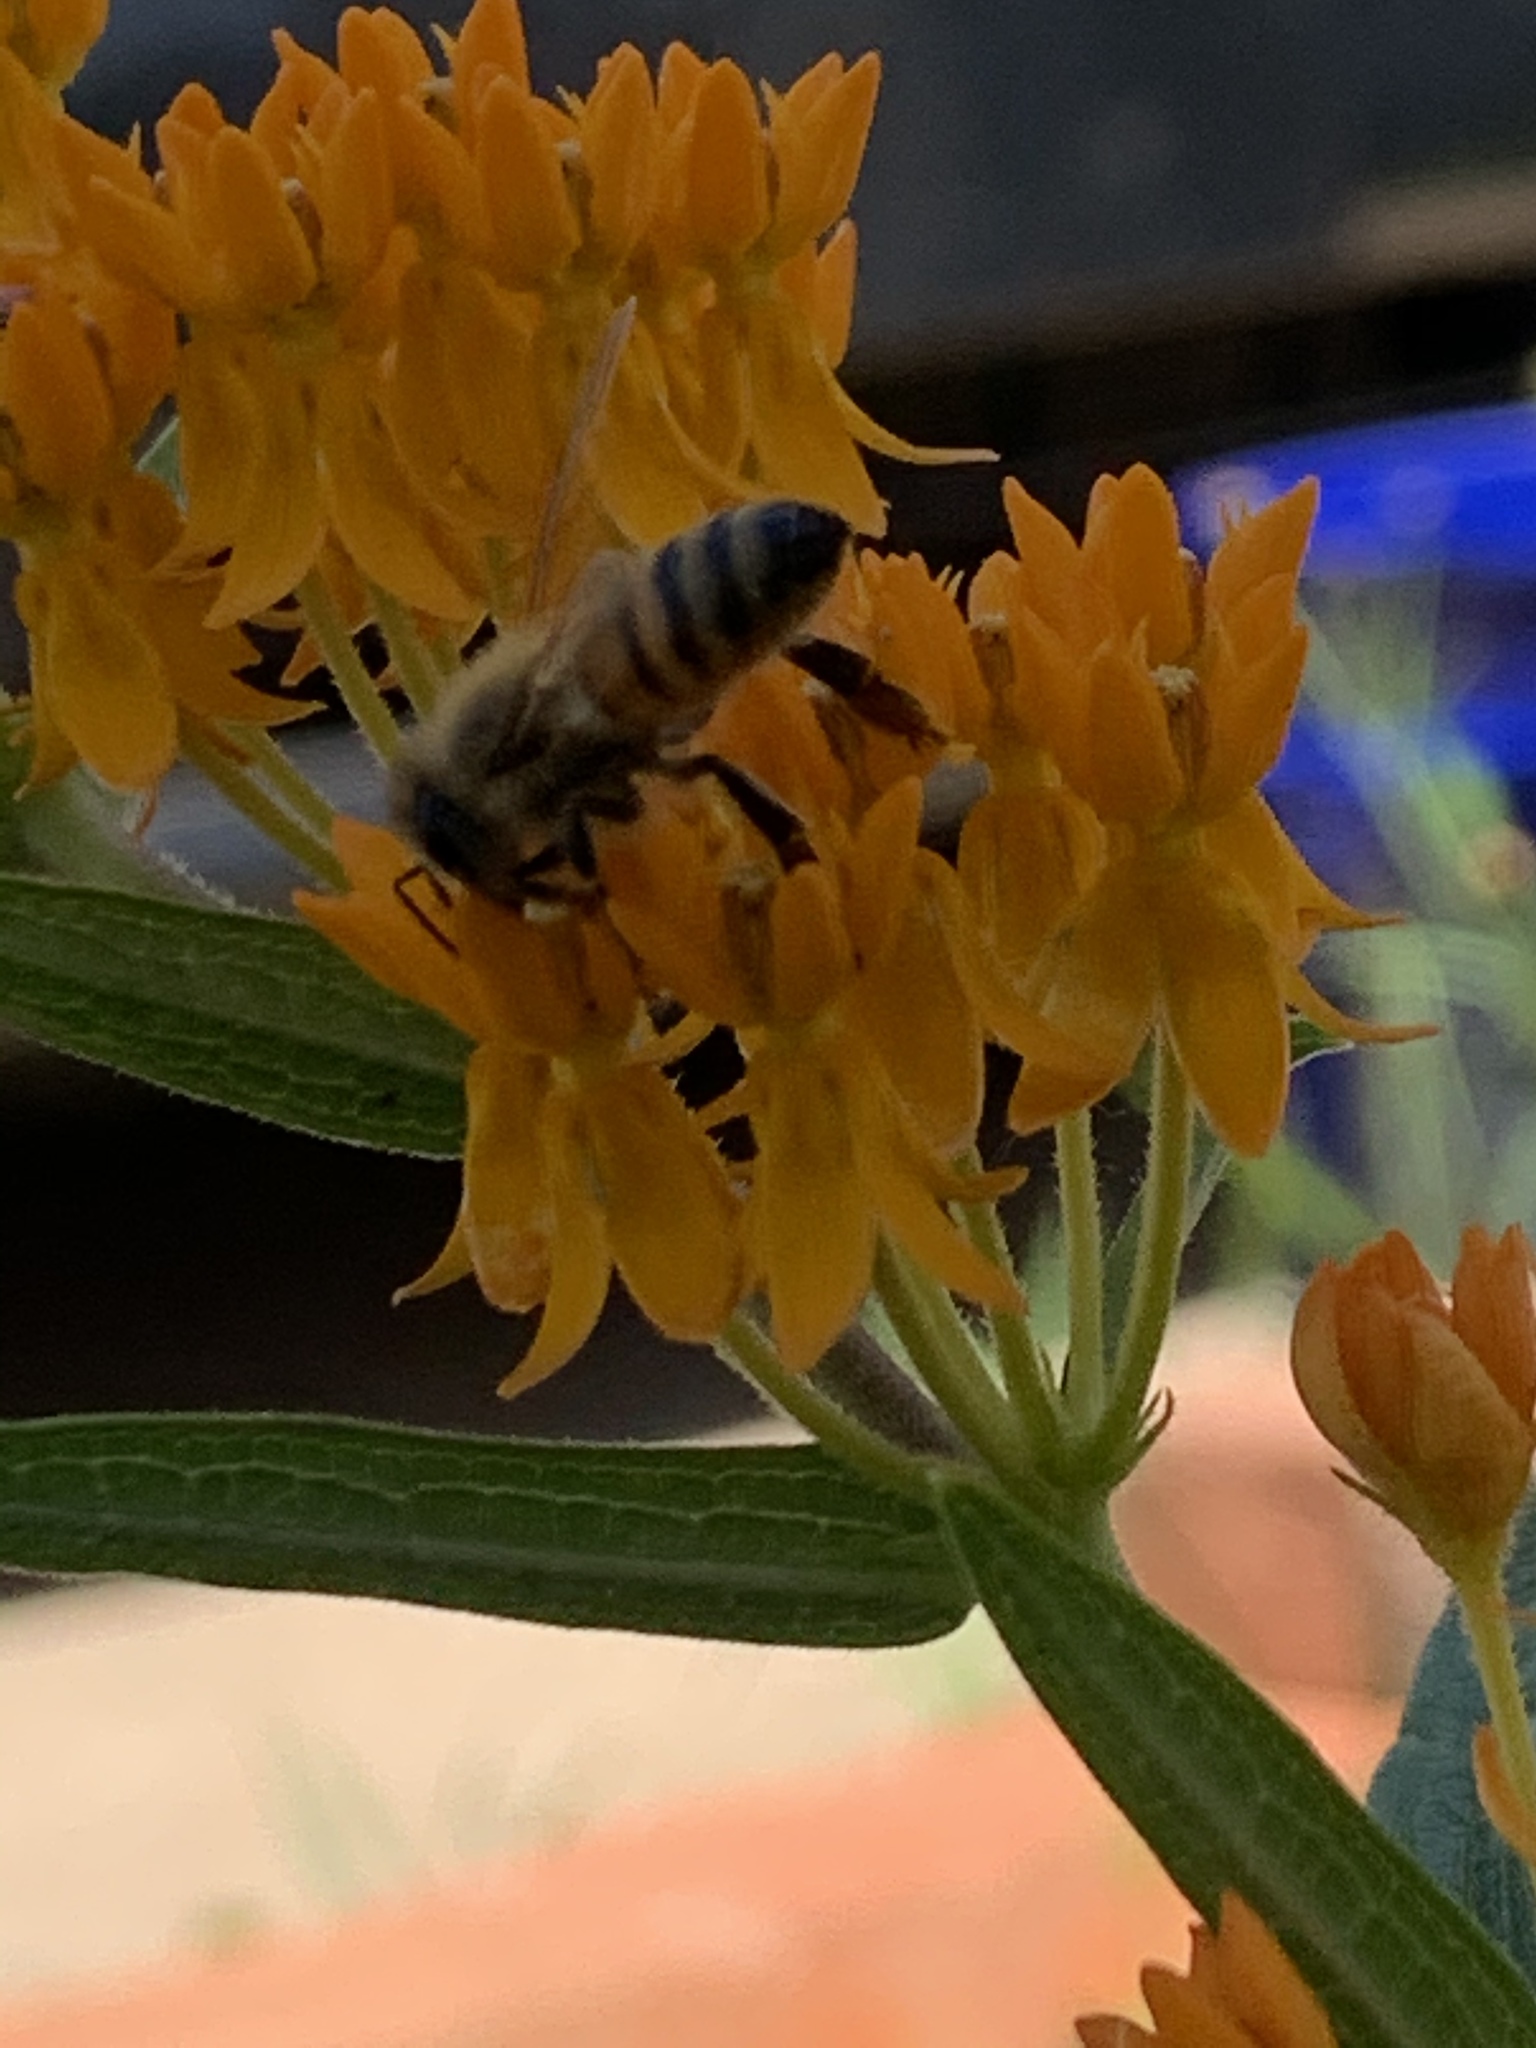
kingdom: Animalia
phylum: Arthropoda
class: Insecta
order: Hymenoptera
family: Apidae
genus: Apis
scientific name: Apis mellifera
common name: Honey bee
